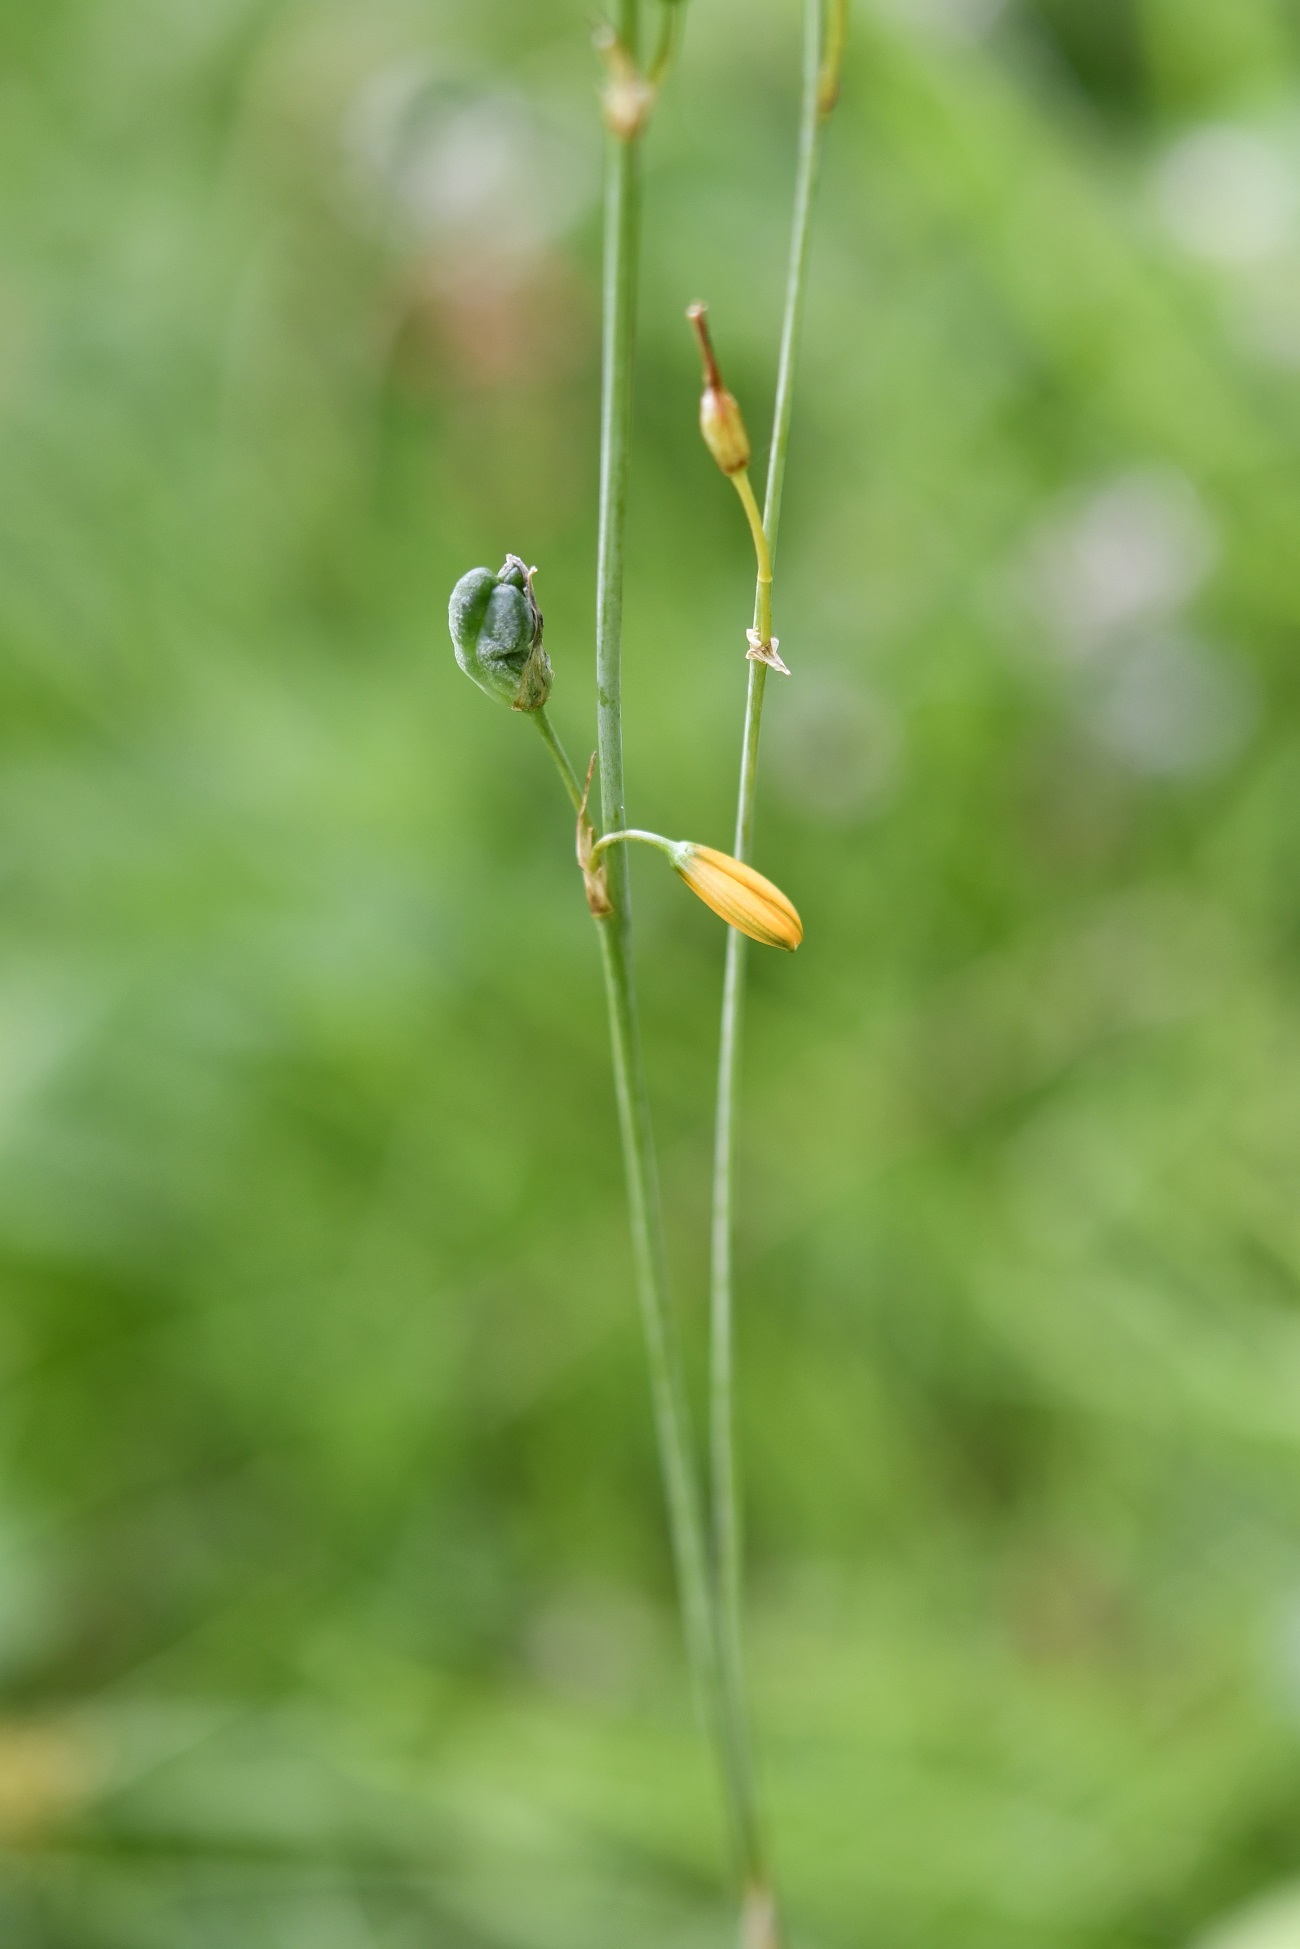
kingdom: Plantae
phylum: Tracheophyta
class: Liliopsida
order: Asparagales
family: Asparagaceae
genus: Echeandia
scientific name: Echeandia skinneri
